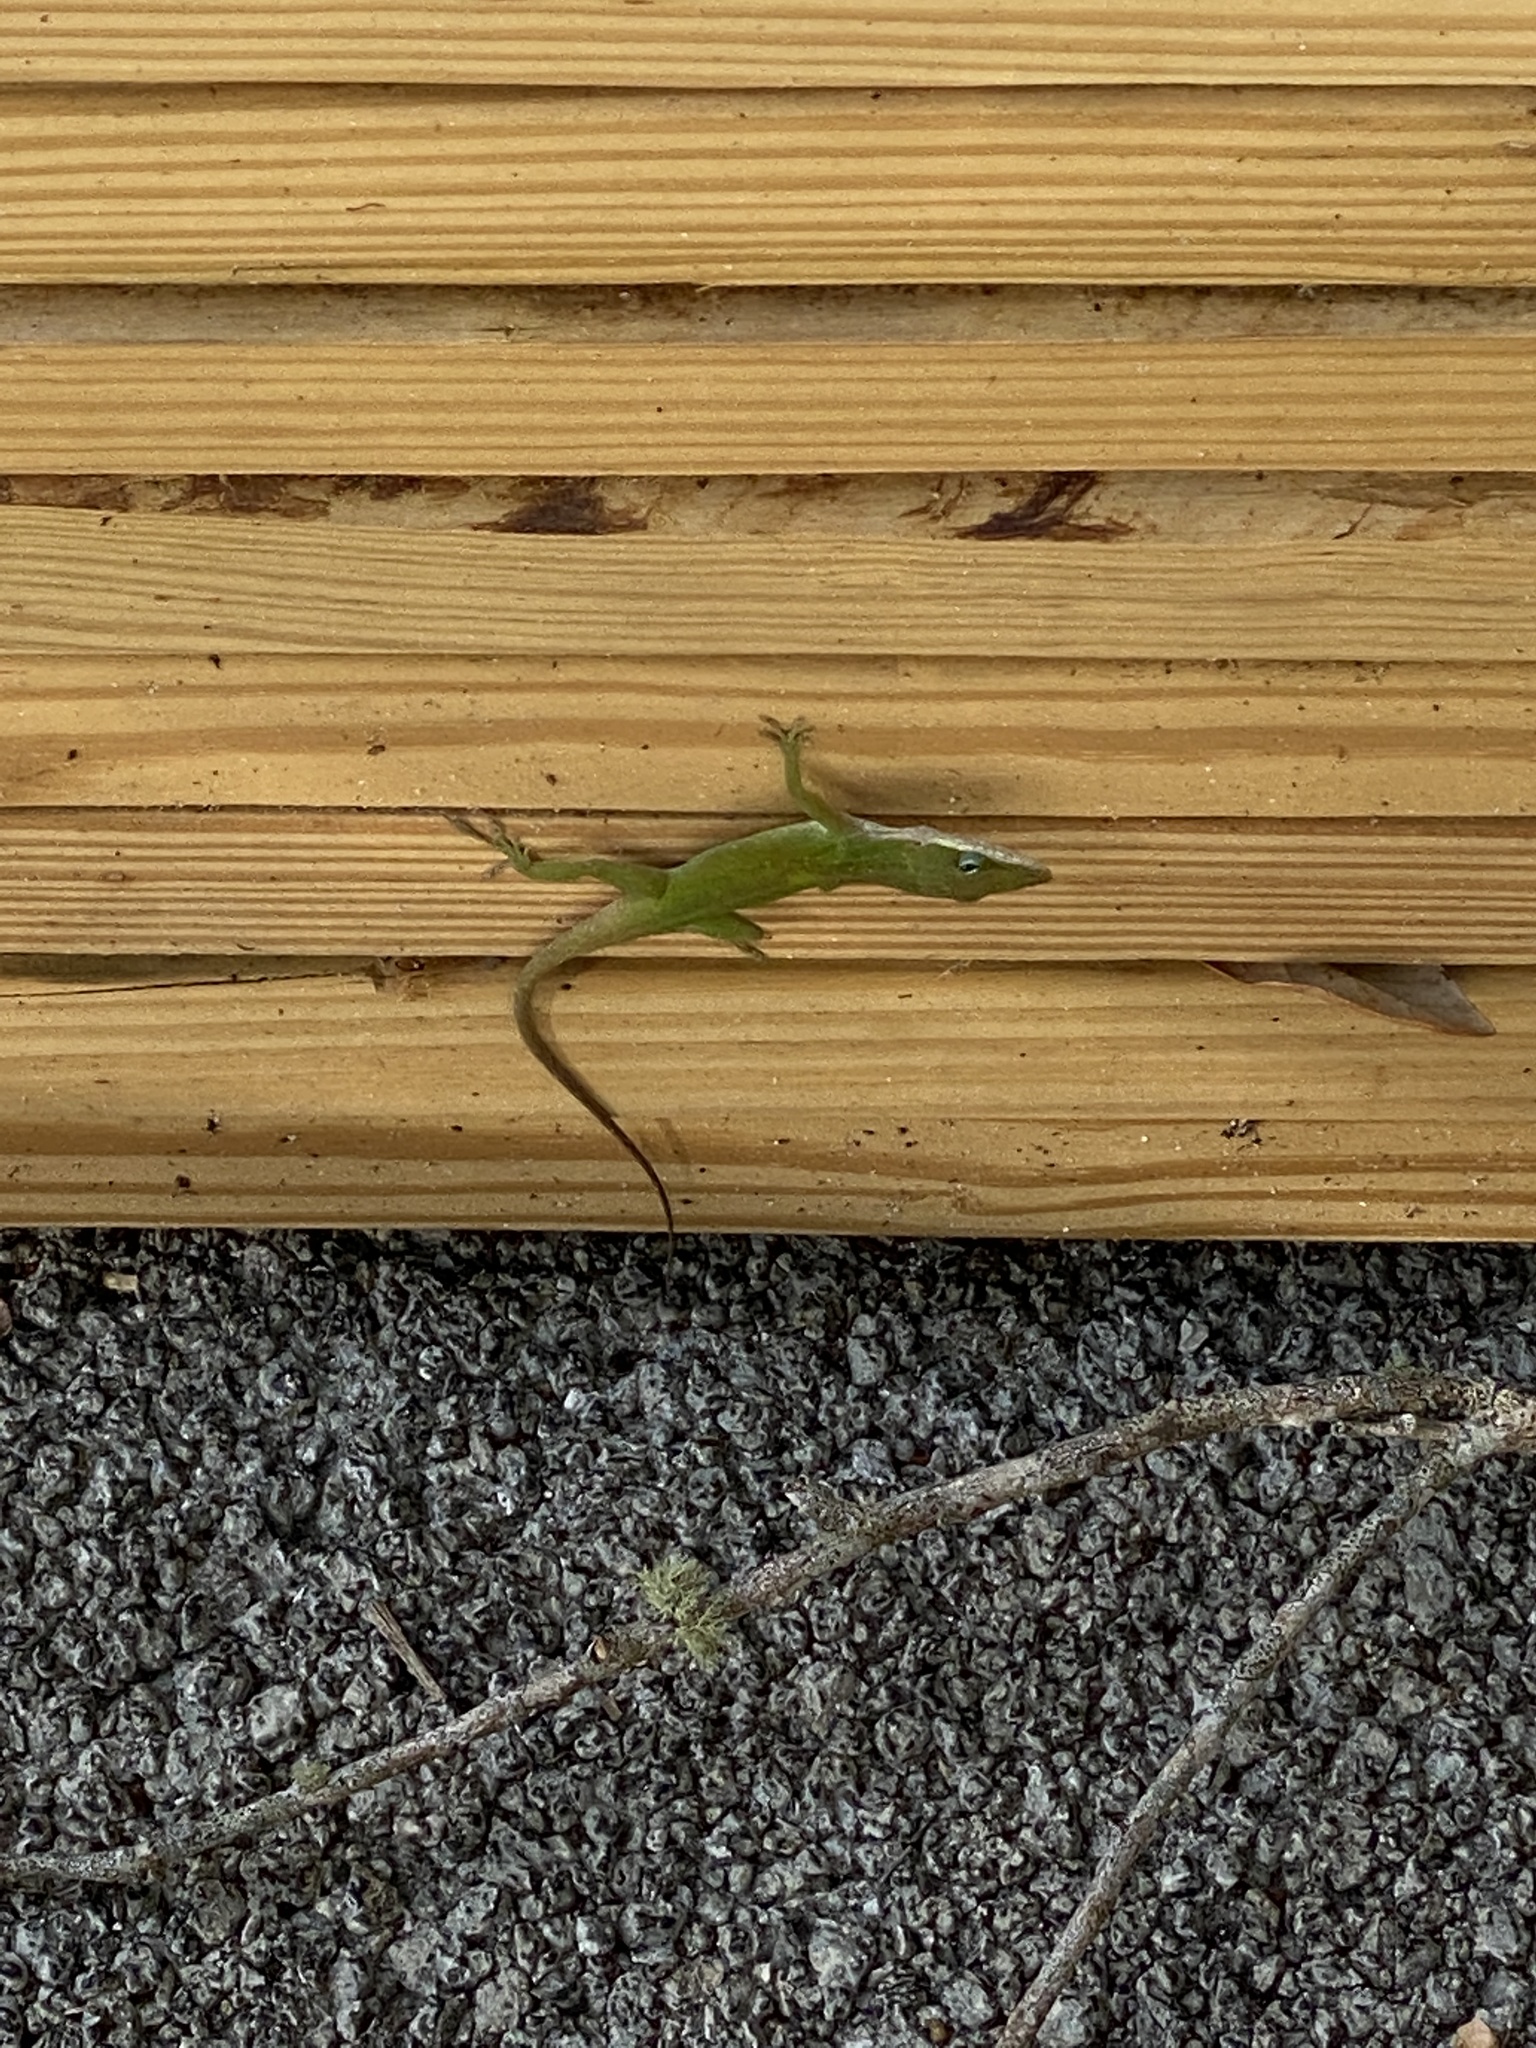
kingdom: Animalia
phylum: Chordata
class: Squamata
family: Dactyloidae
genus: Anolis
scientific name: Anolis carolinensis
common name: Green anole
